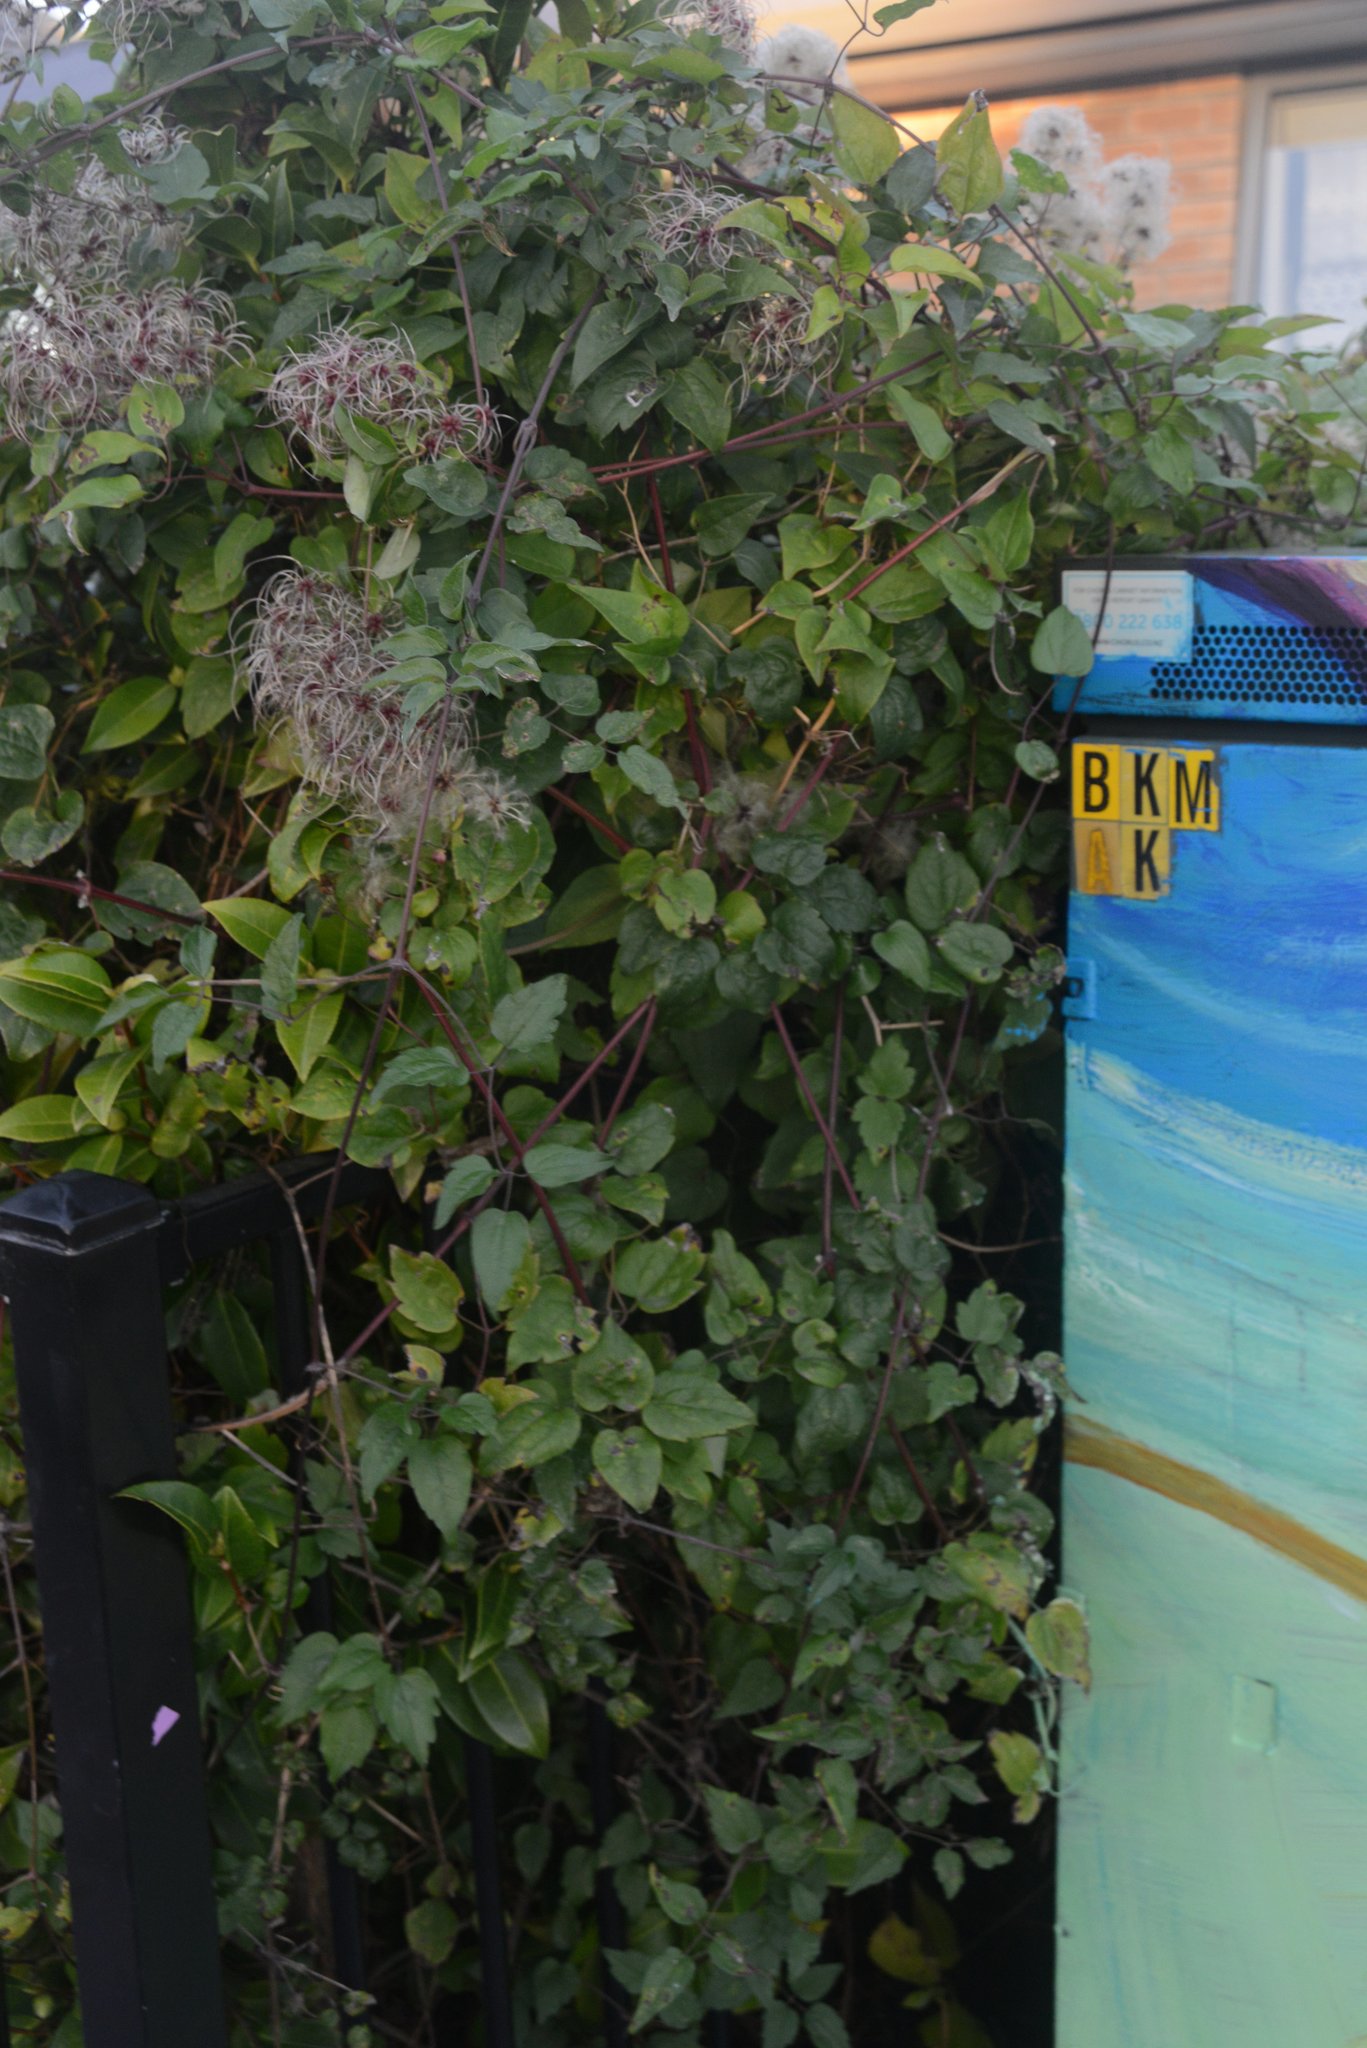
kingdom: Plantae
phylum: Tracheophyta
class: Magnoliopsida
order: Ranunculales
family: Ranunculaceae
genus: Clematis
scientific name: Clematis vitalba
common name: Evergreen clematis
